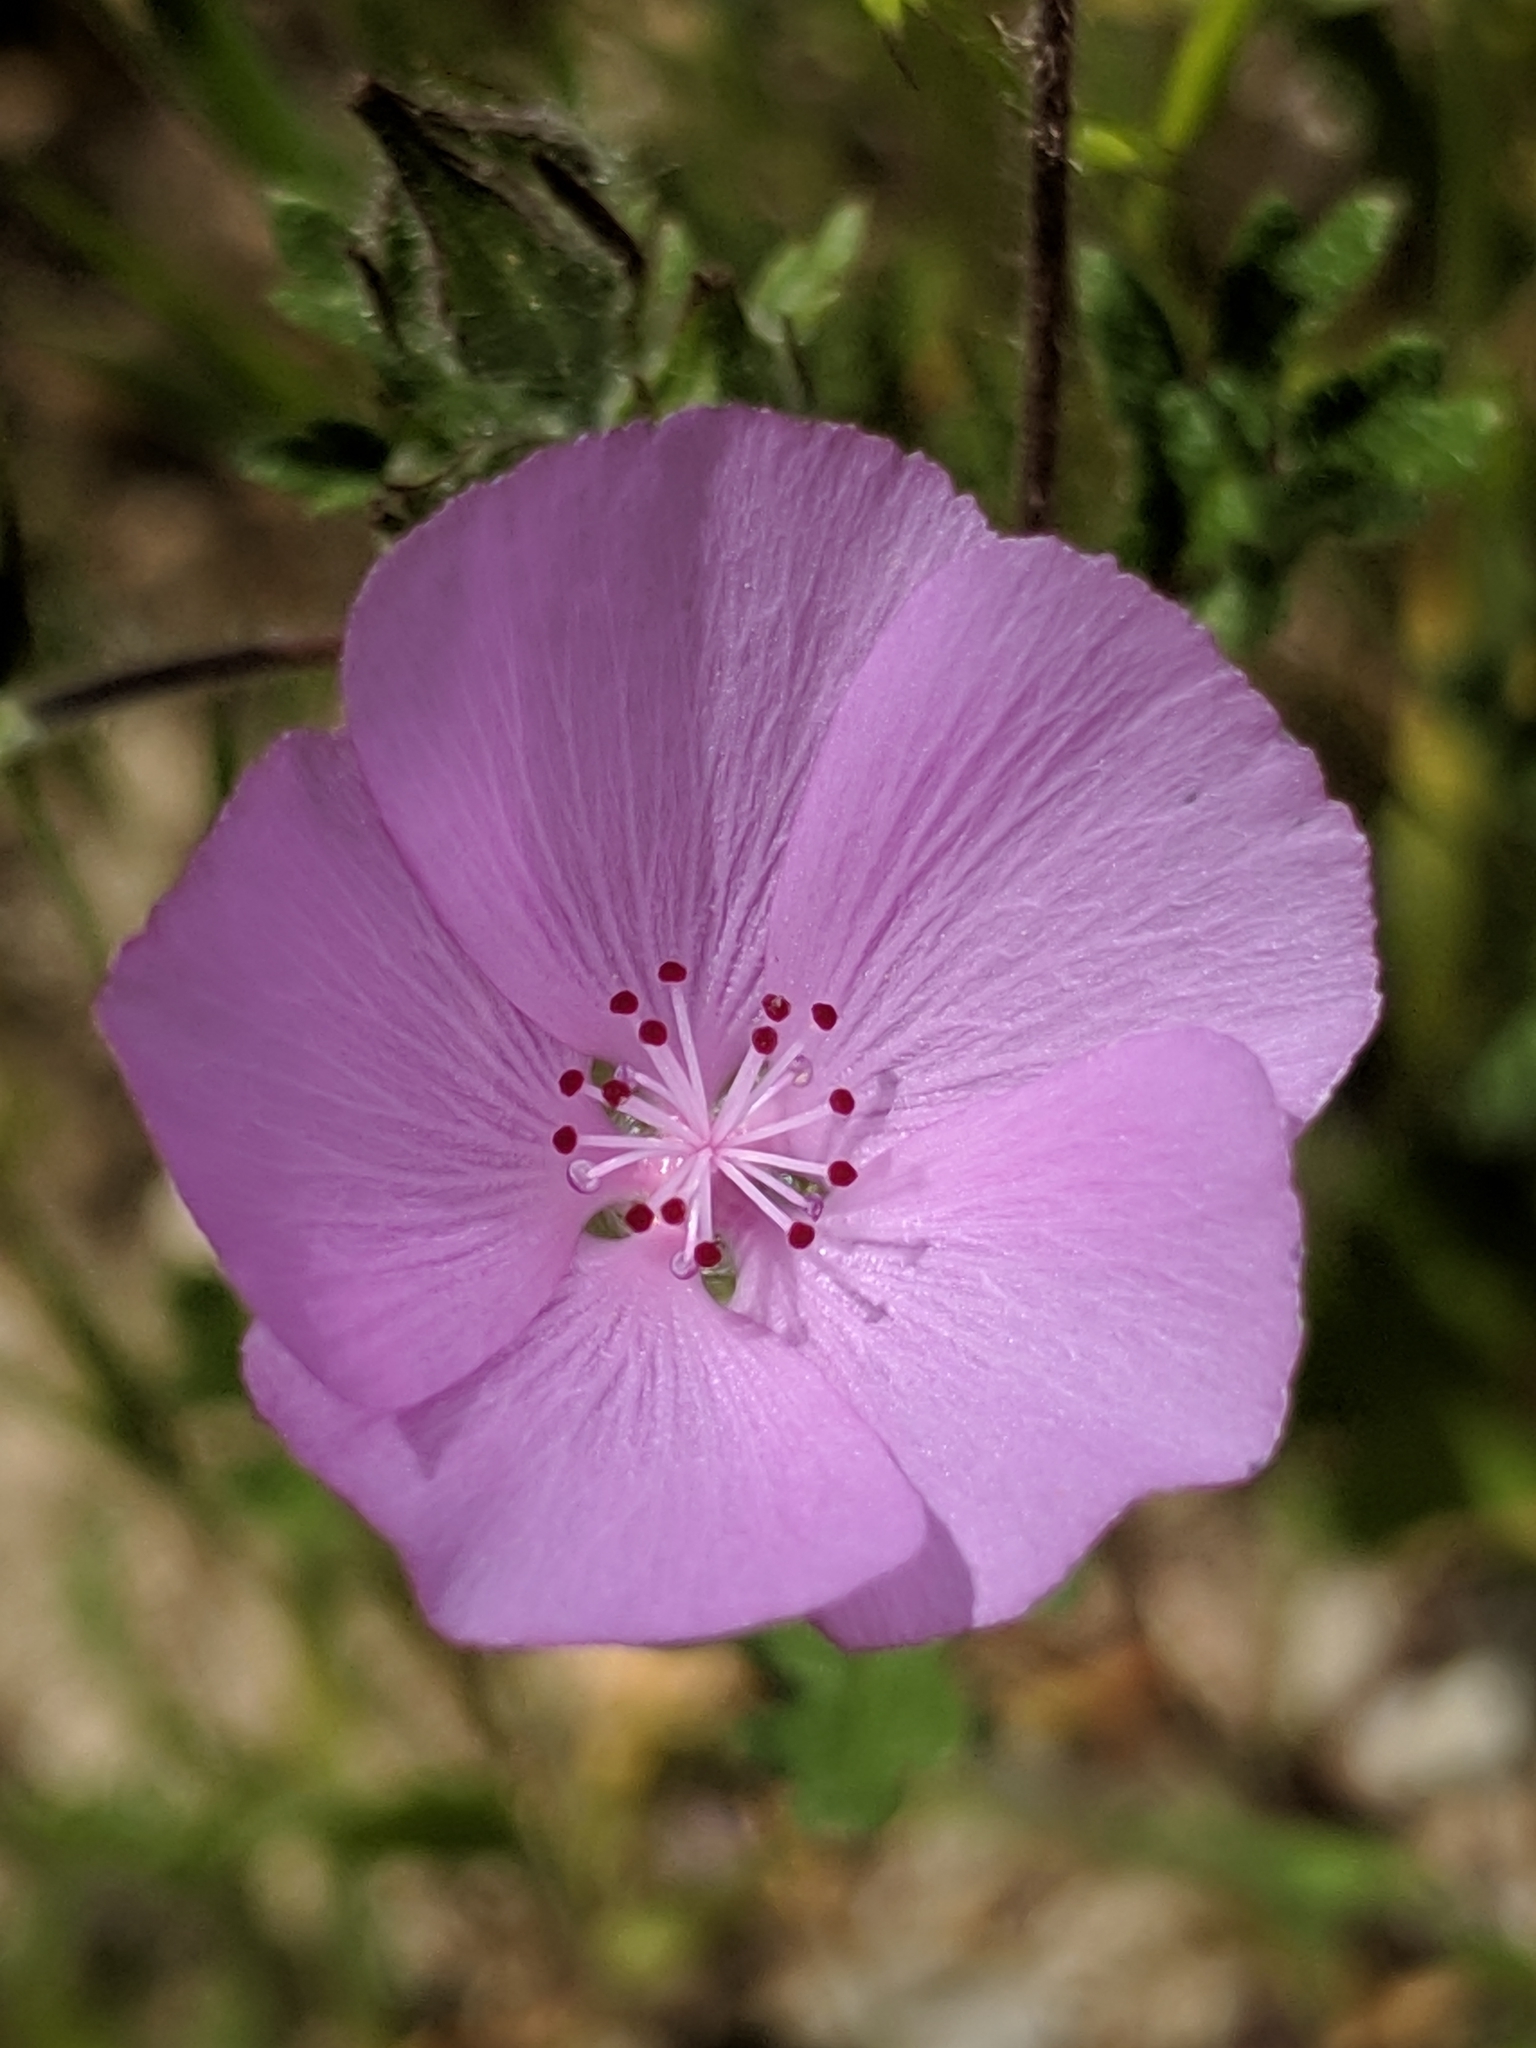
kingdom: Plantae
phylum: Tracheophyta
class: Magnoliopsida
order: Malvales
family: Malvaceae
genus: Eremalche
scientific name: Eremalche parryi
